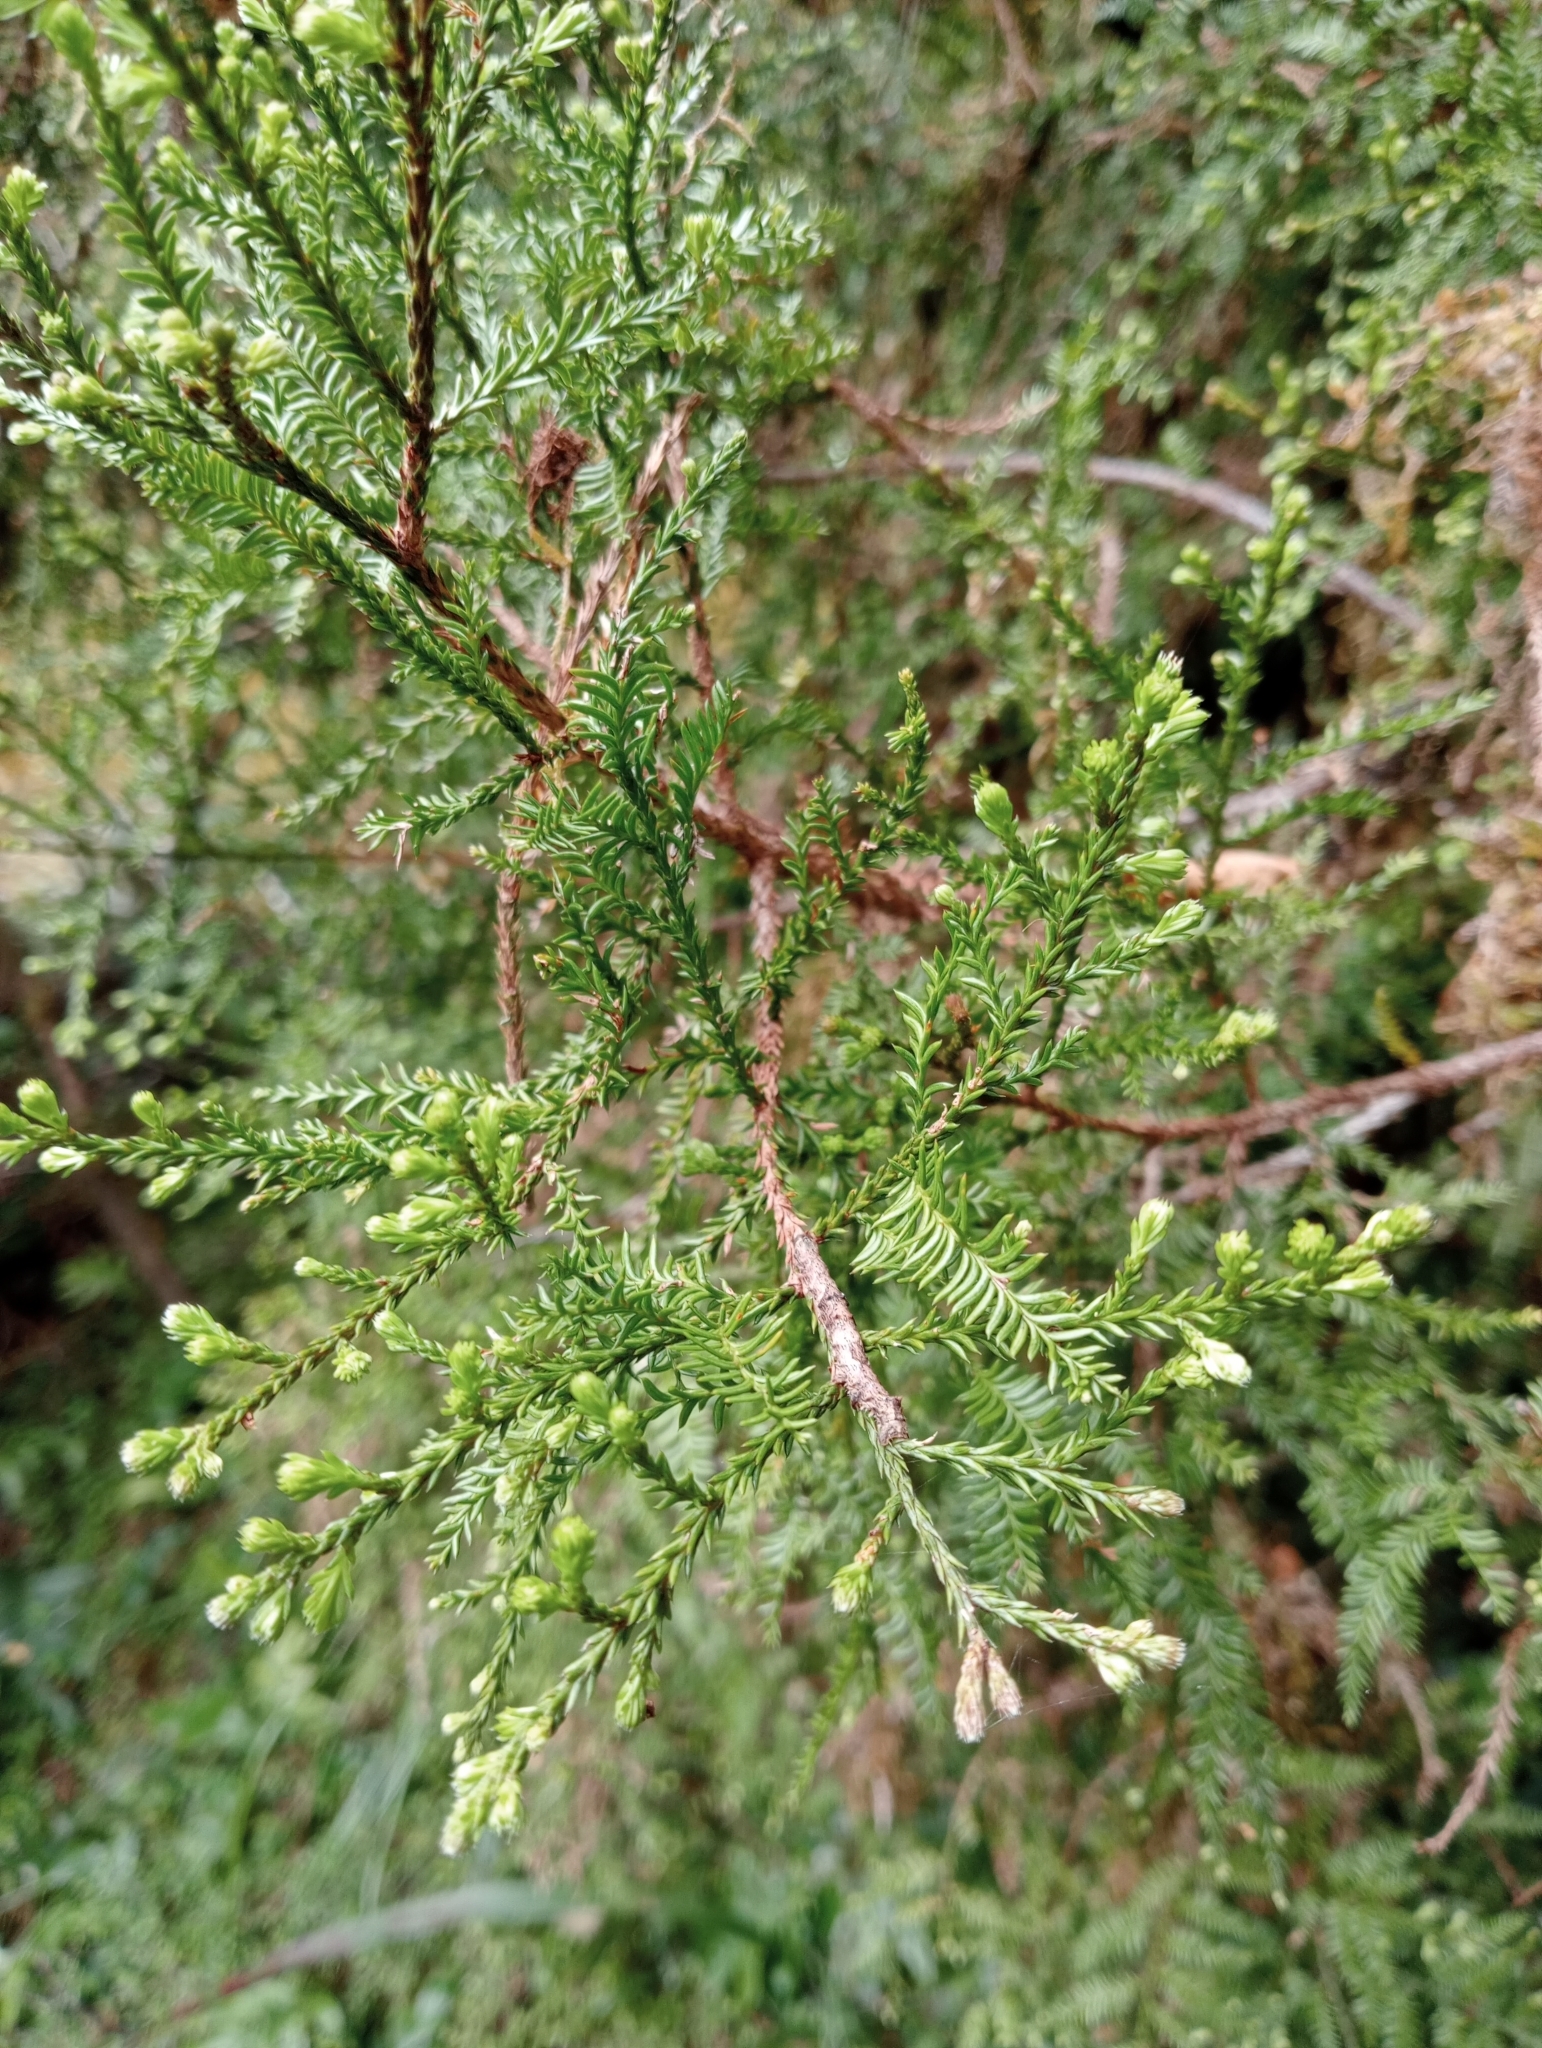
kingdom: Plantae
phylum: Tracheophyta
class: Pinopsida
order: Pinales
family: Podocarpaceae
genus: Dacrycarpus
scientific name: Dacrycarpus dacrydioides
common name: White pine
